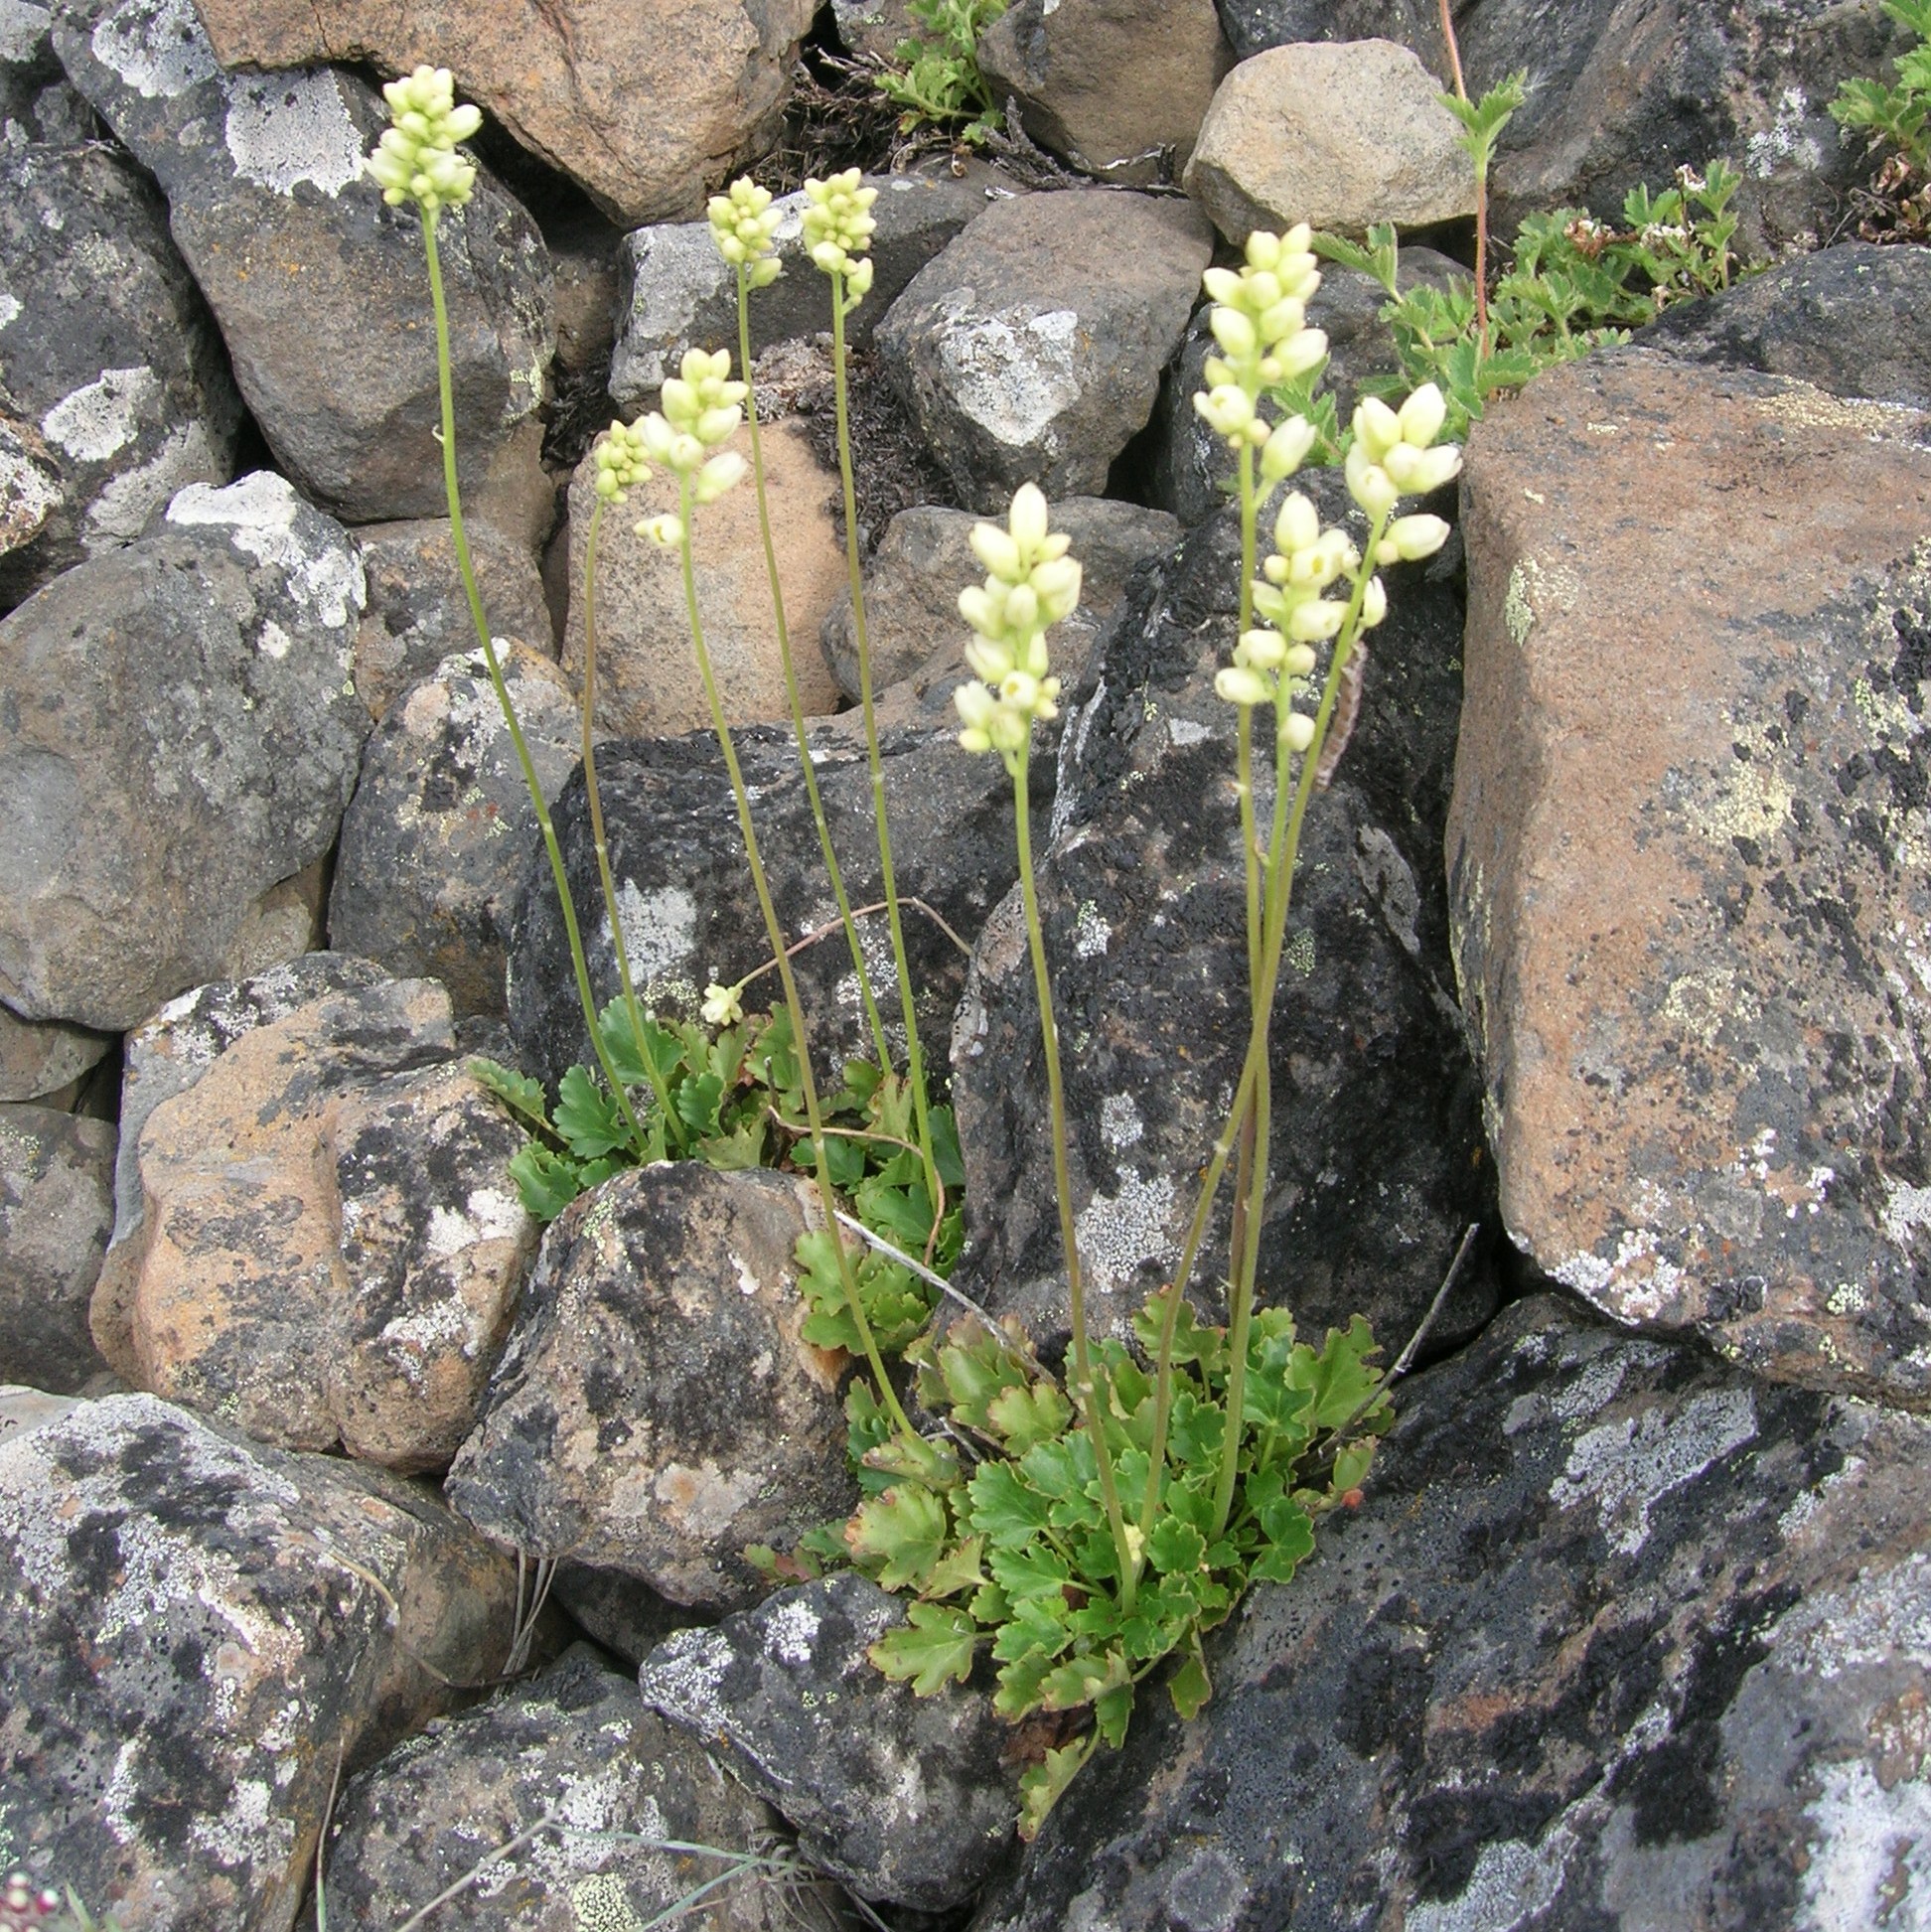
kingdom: Plantae
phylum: Tracheophyta
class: Magnoliopsida
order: Saxifragales
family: Saxifragaceae
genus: Heuchera
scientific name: Heuchera cylindrica
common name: Mat alumroot
